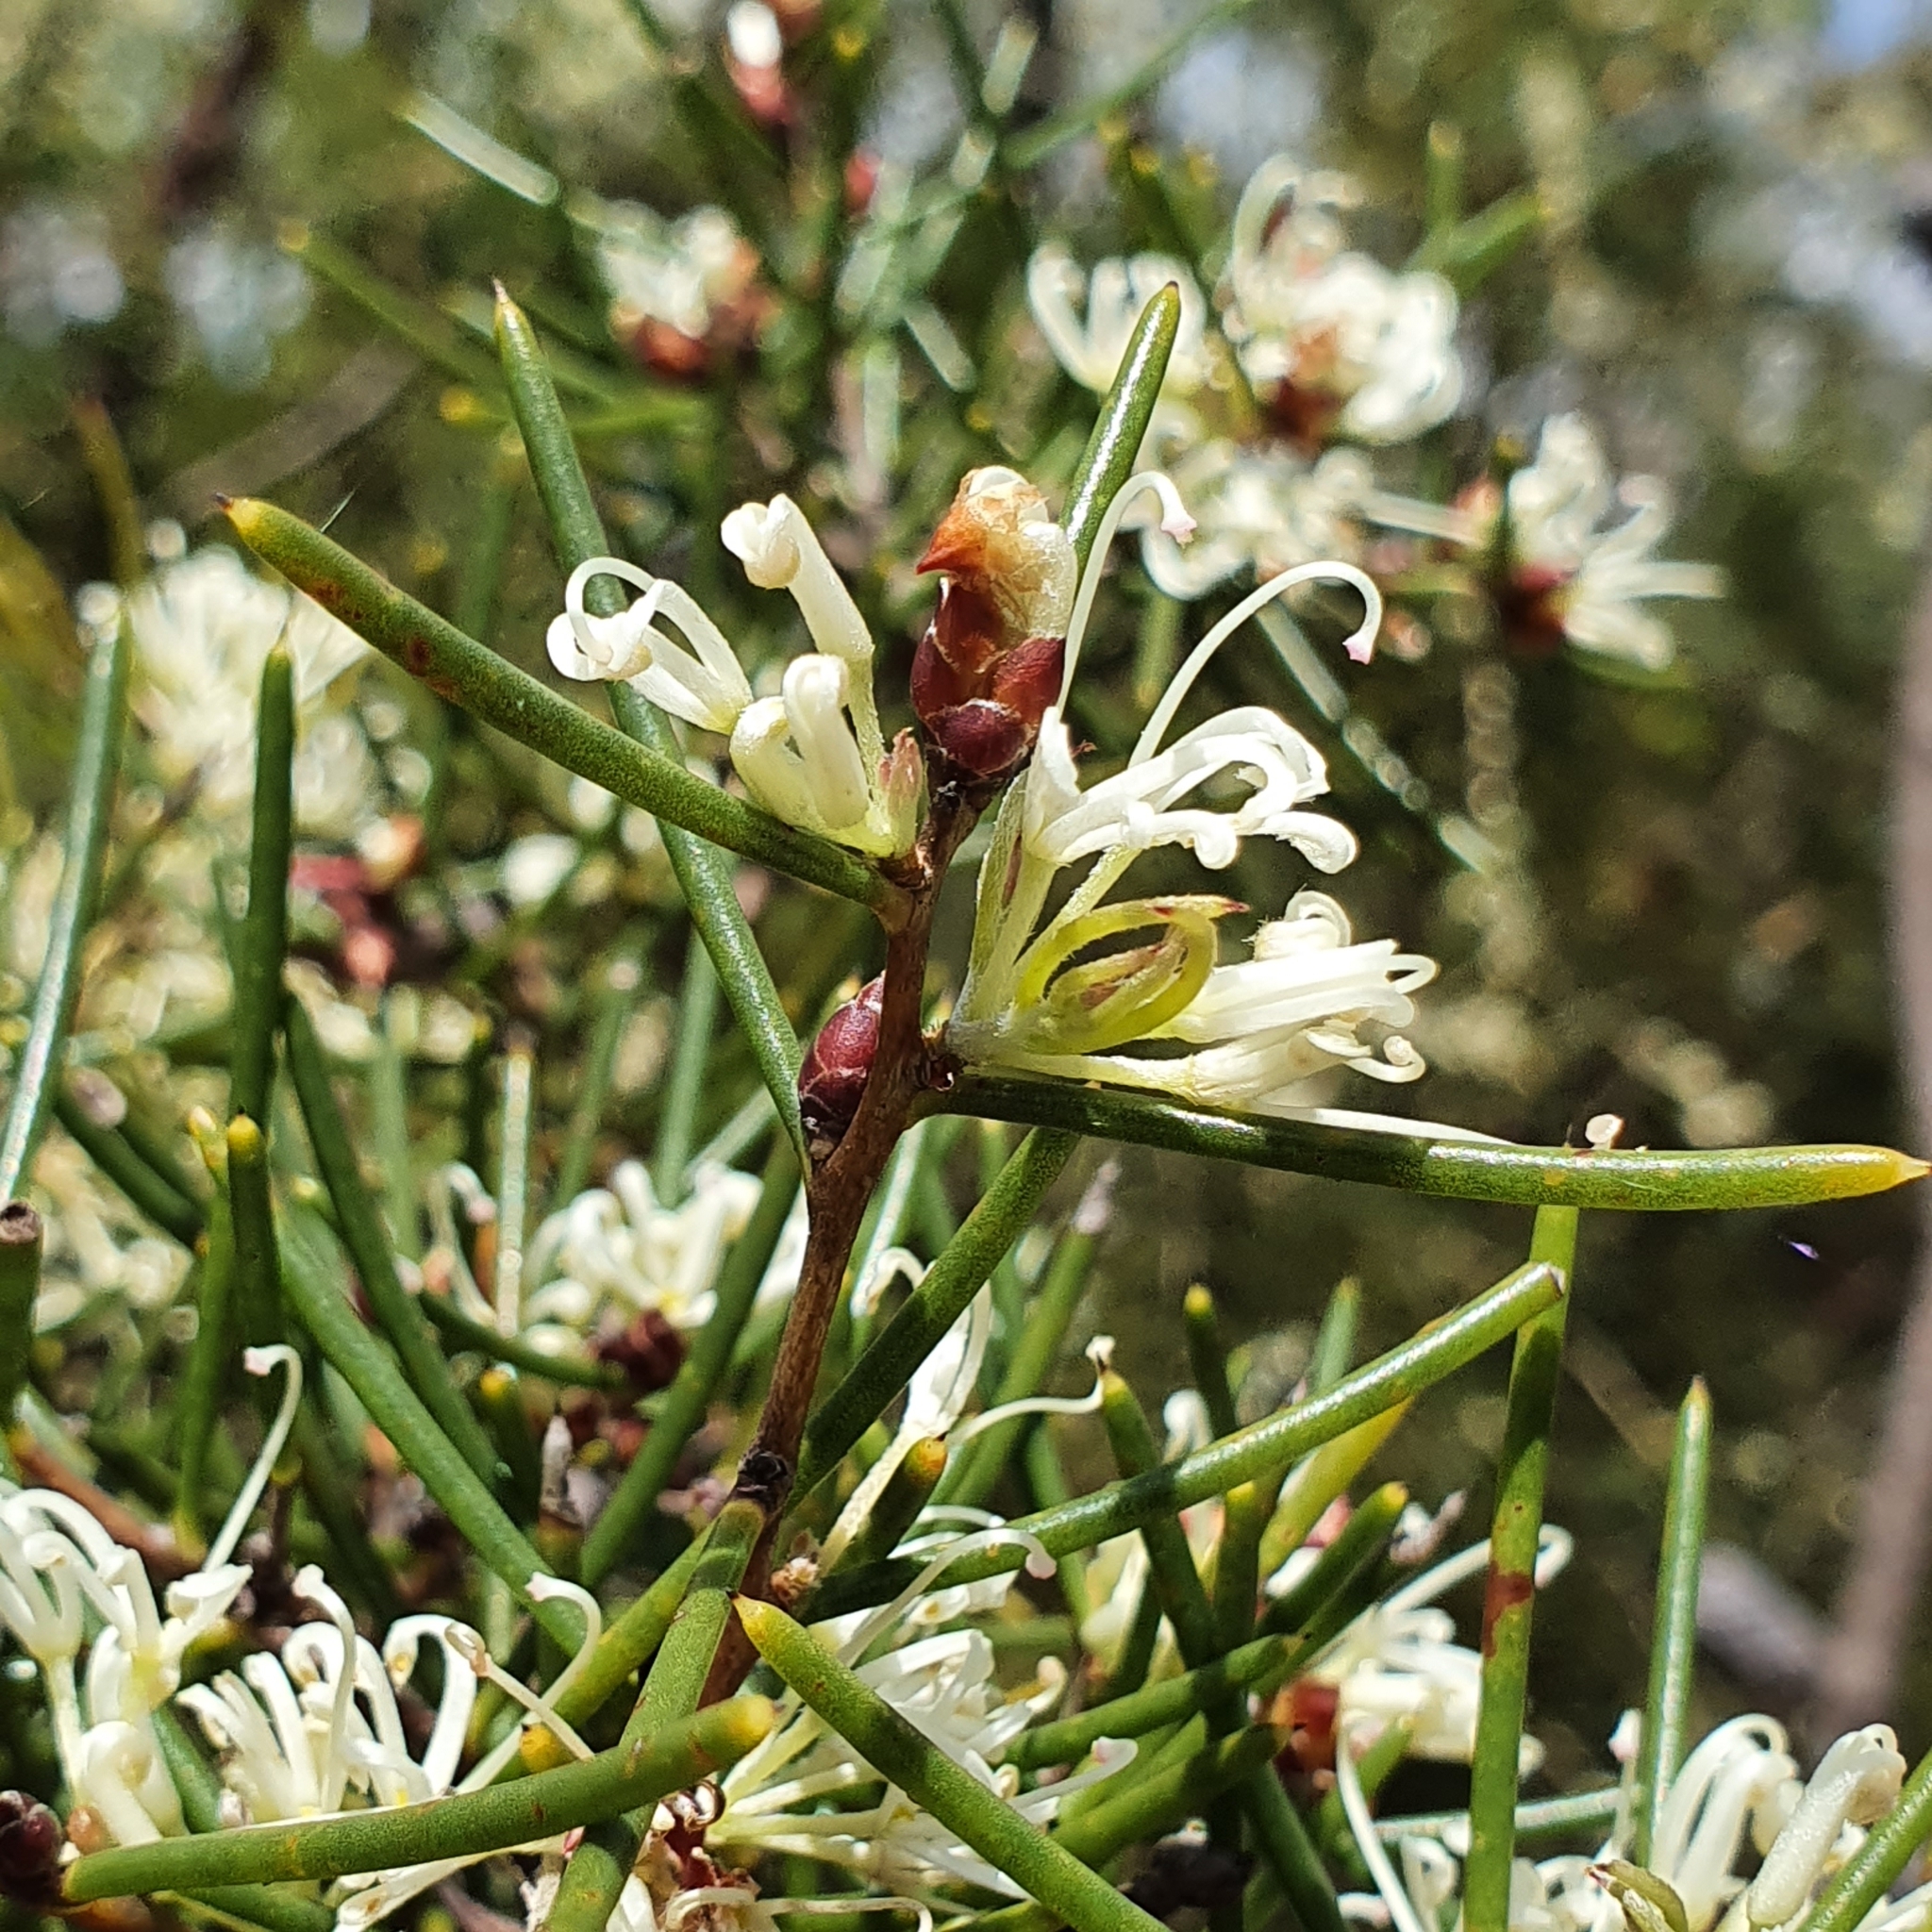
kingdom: Plantae
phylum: Tracheophyta
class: Magnoliopsida
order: Proteales
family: Proteaceae
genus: Hakea
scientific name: Hakea teretifolia
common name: Dagger hakea
